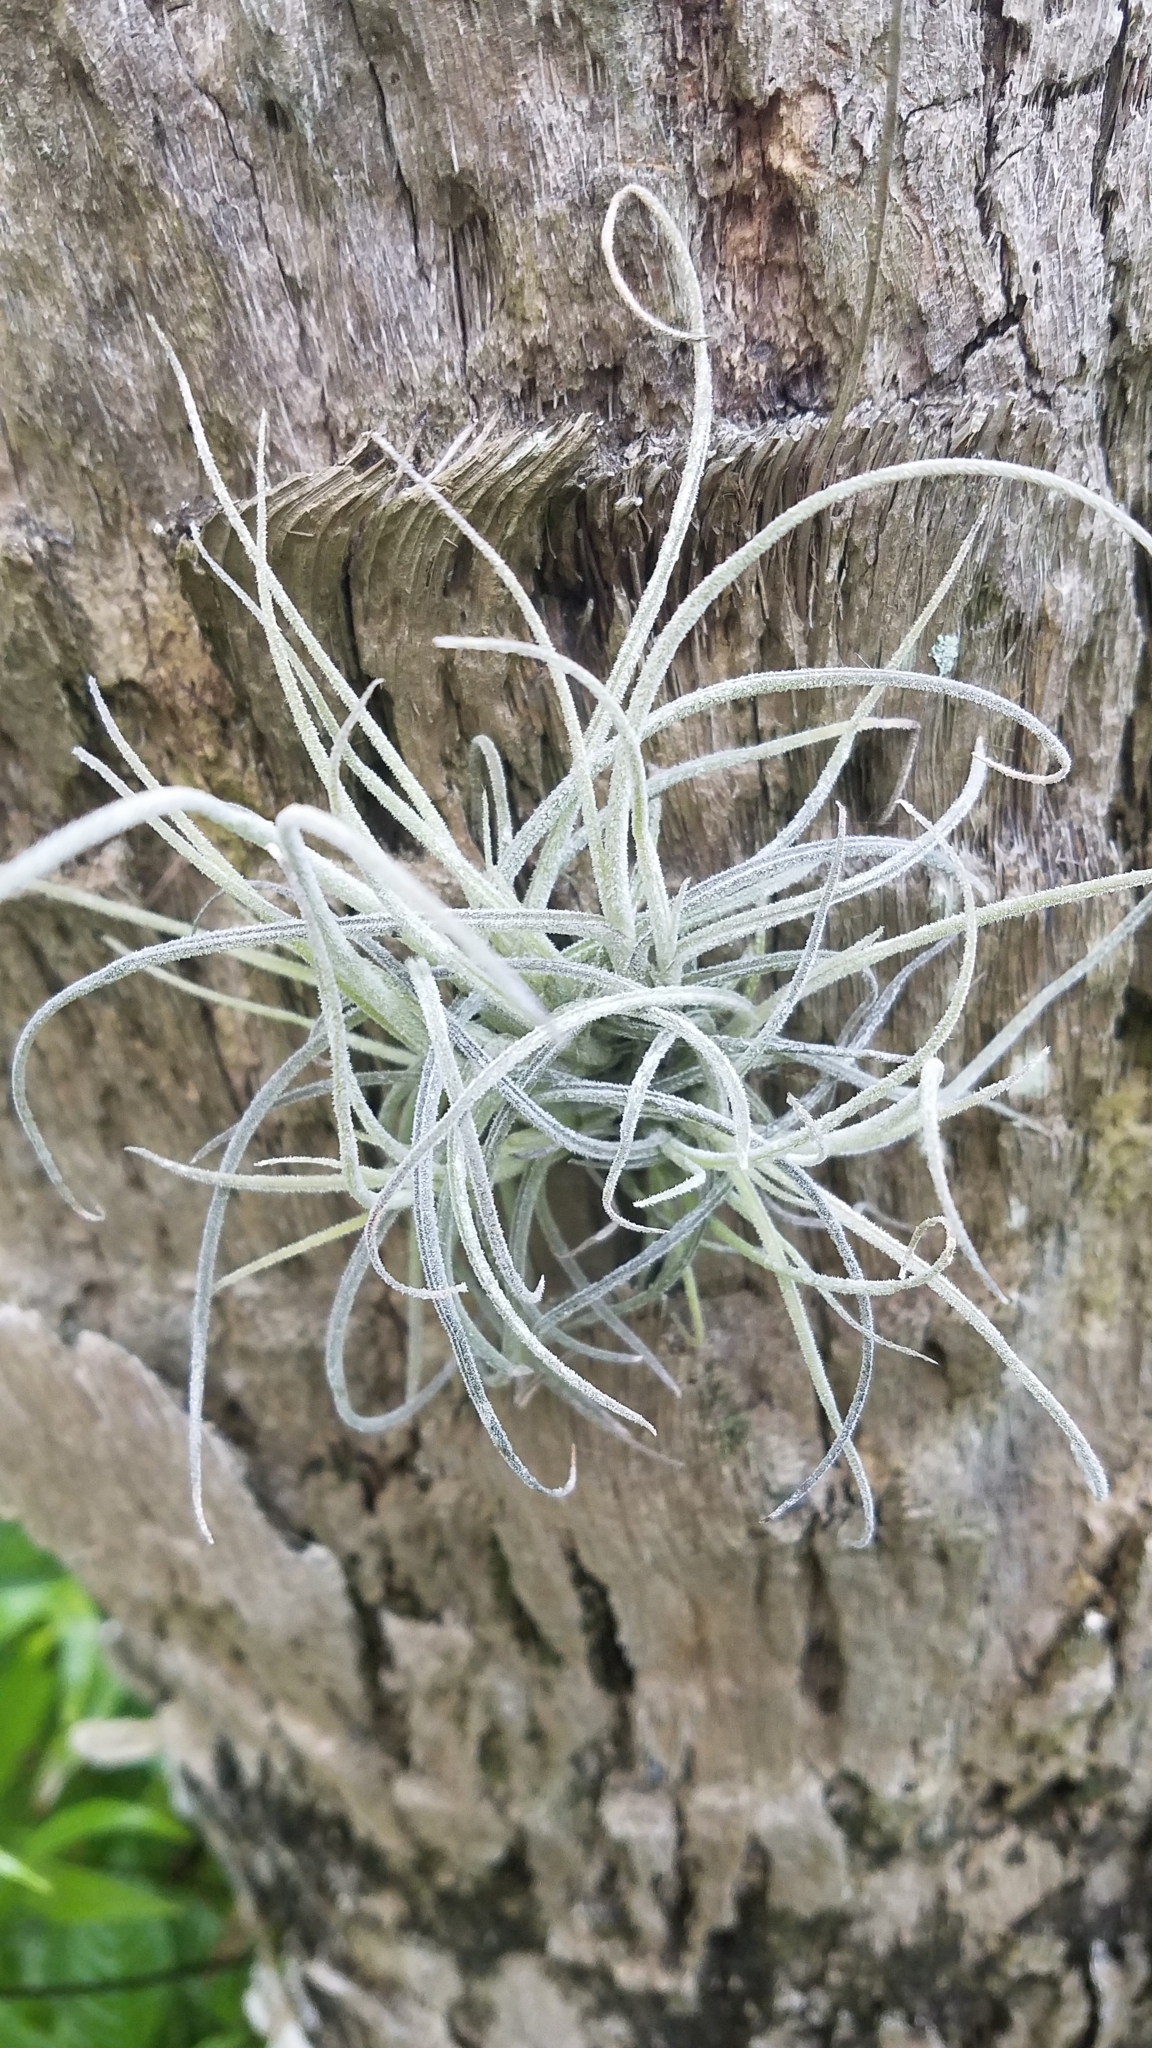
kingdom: Plantae
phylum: Tracheophyta
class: Liliopsida
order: Poales
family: Bromeliaceae
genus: Tillandsia
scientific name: Tillandsia recurvata
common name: Small ballmoss
